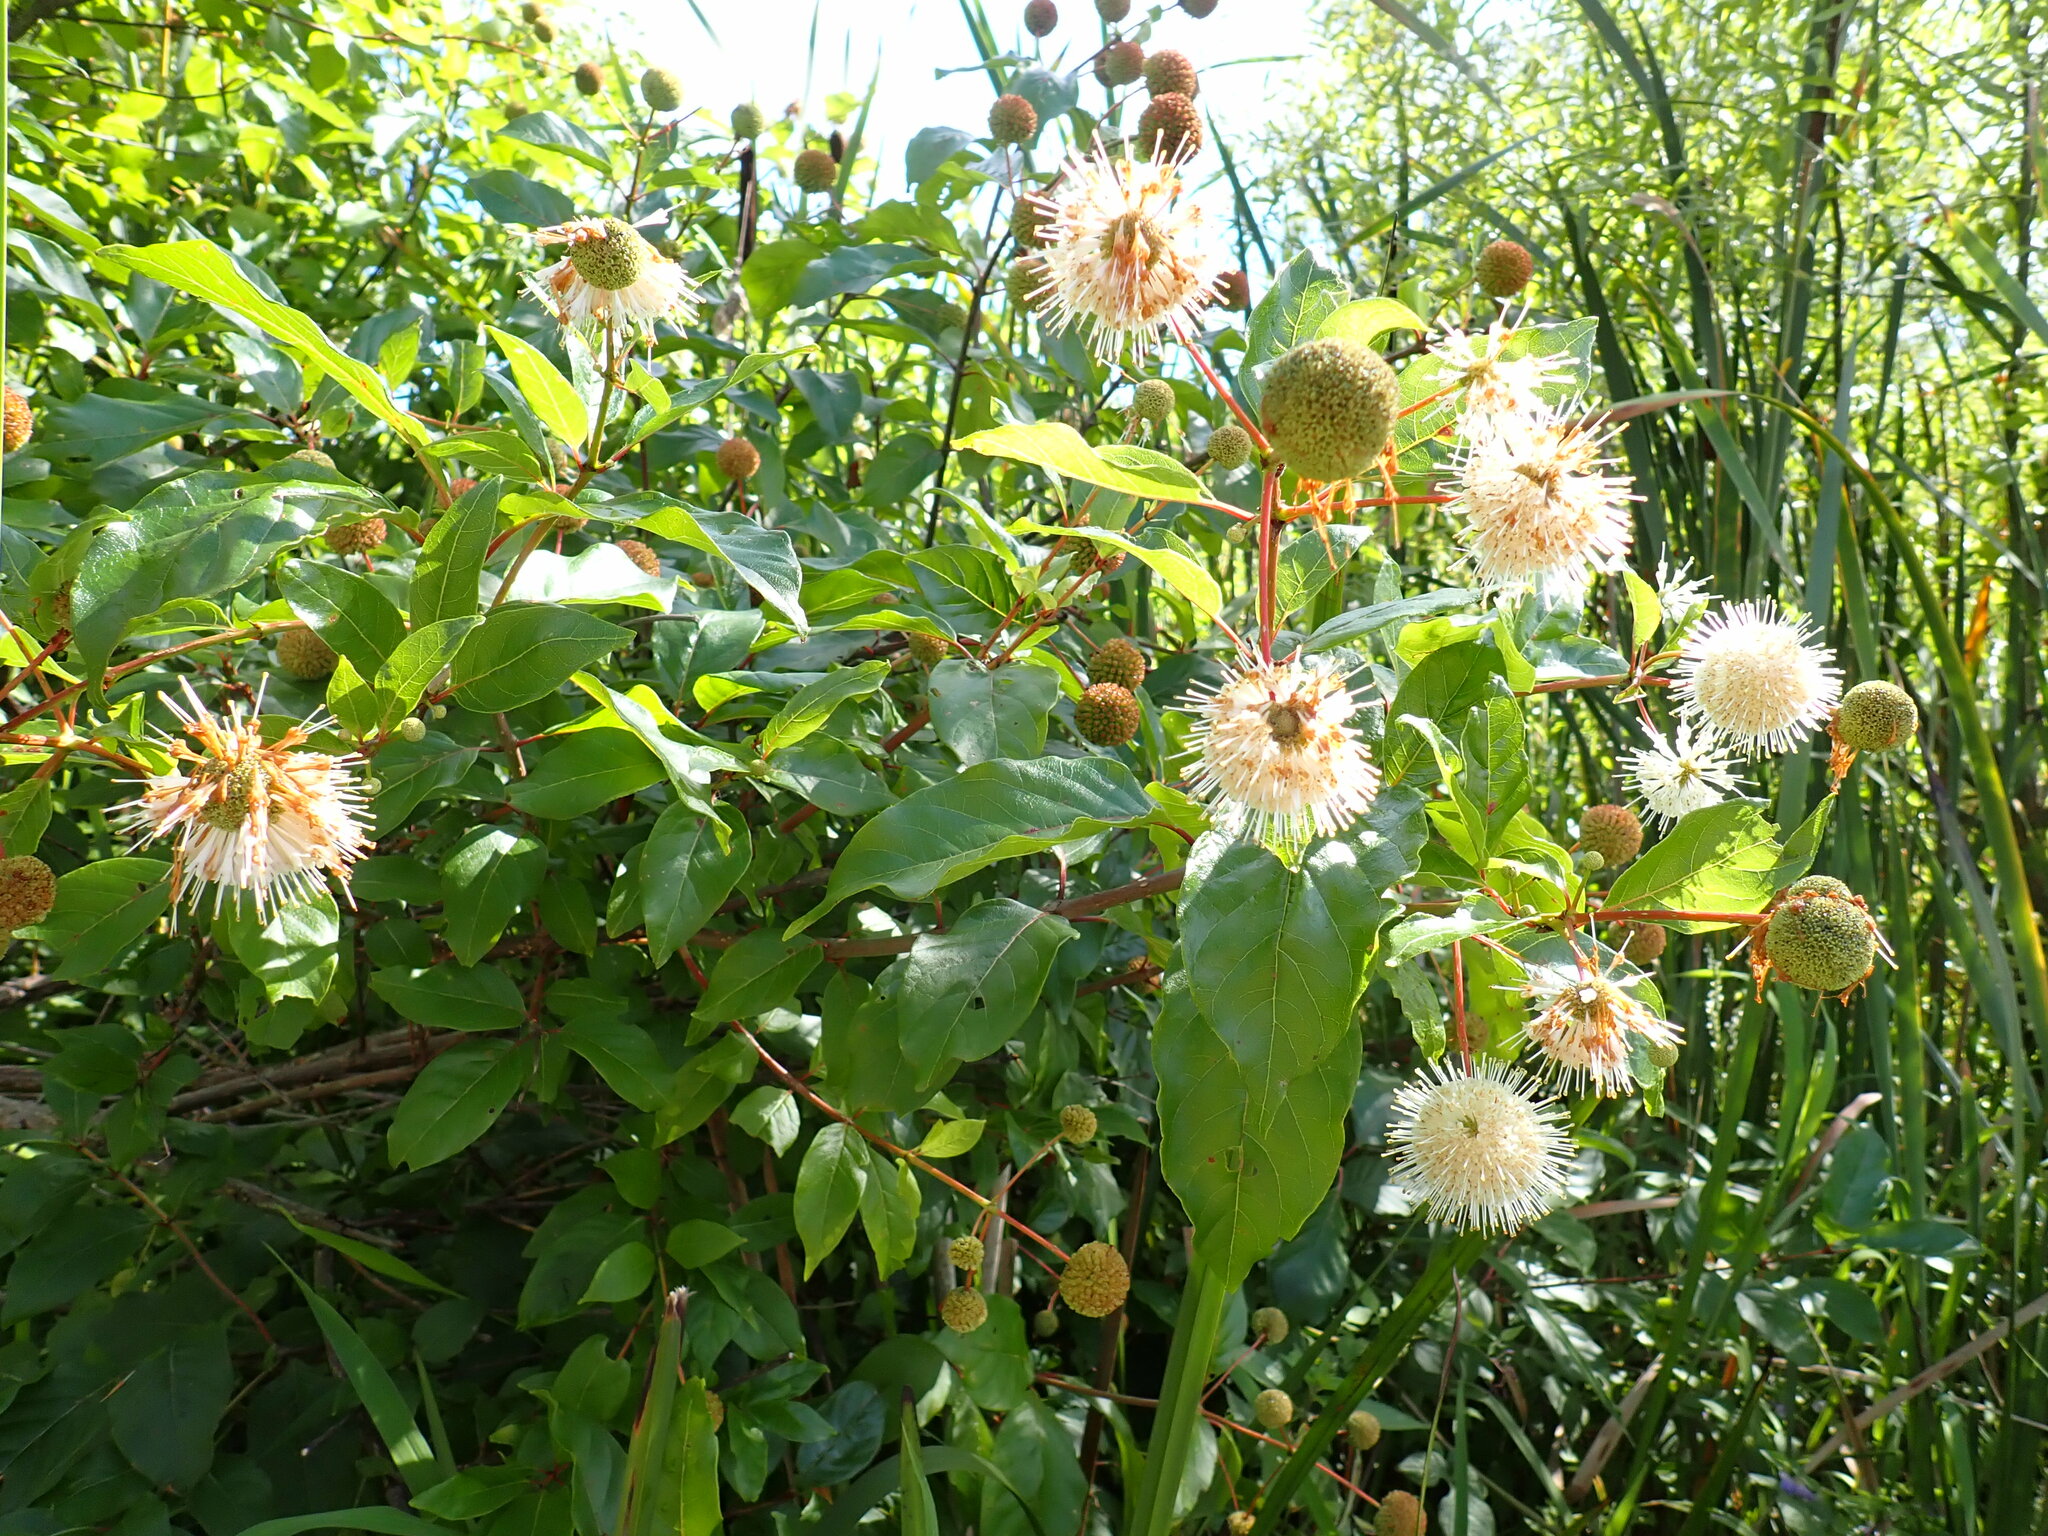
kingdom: Plantae
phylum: Tracheophyta
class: Magnoliopsida
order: Gentianales
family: Rubiaceae
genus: Cephalanthus
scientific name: Cephalanthus occidentalis
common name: Button-willow
